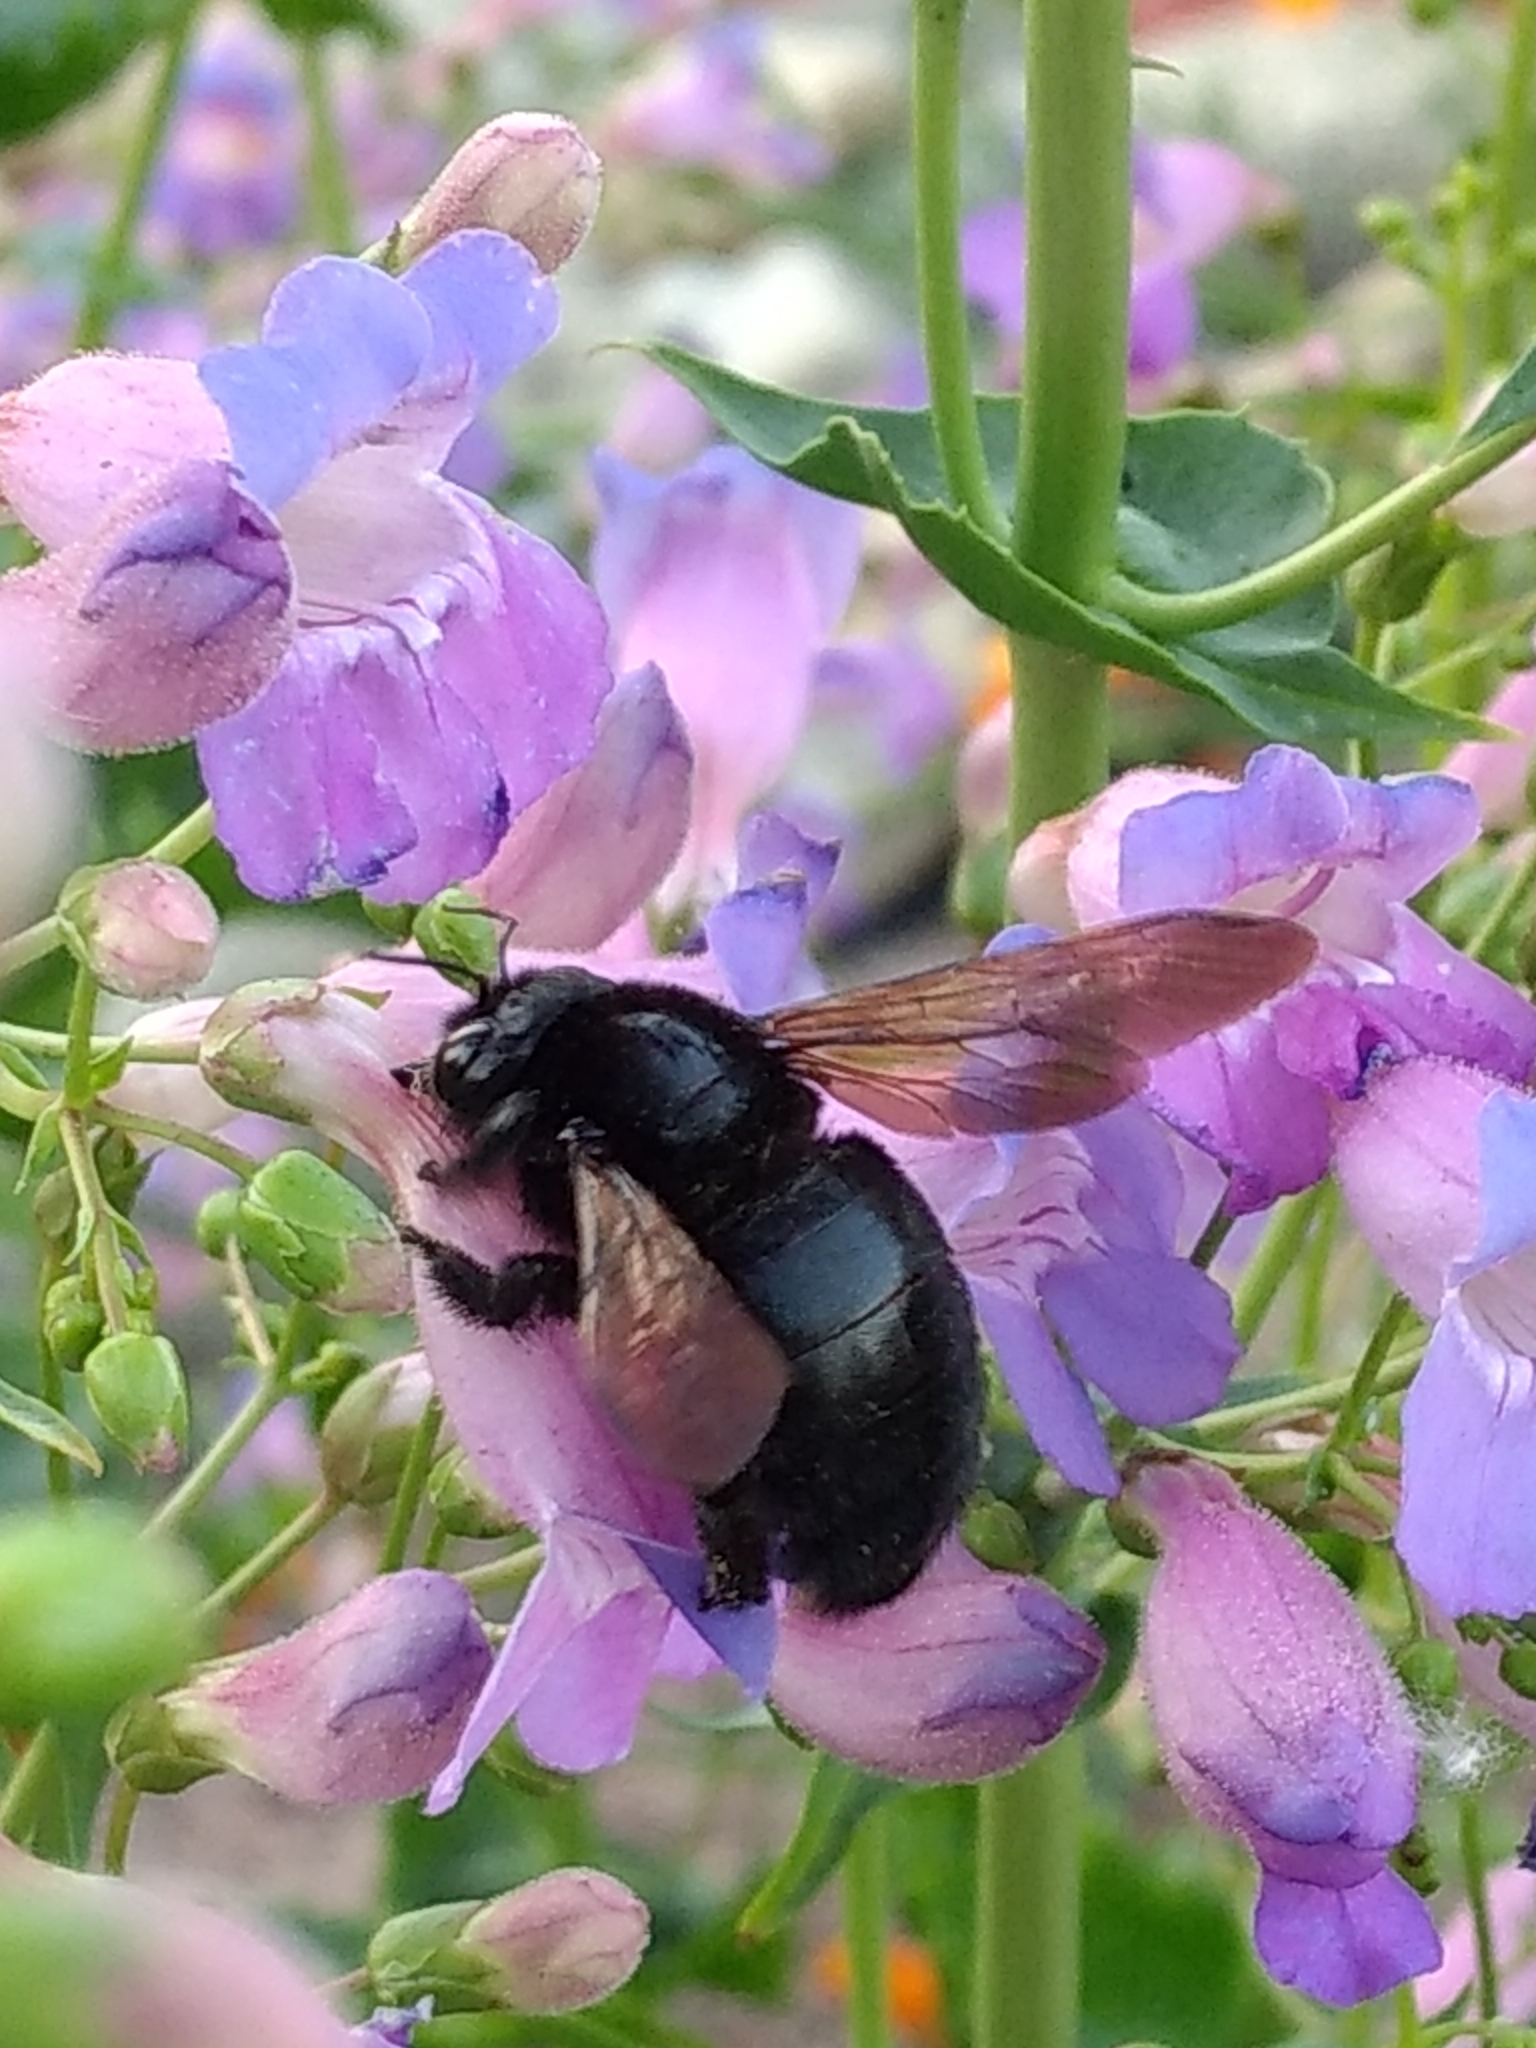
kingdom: Animalia
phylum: Arthropoda
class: Insecta
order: Hymenoptera
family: Apidae
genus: Xylocopa
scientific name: Xylocopa sonorina
